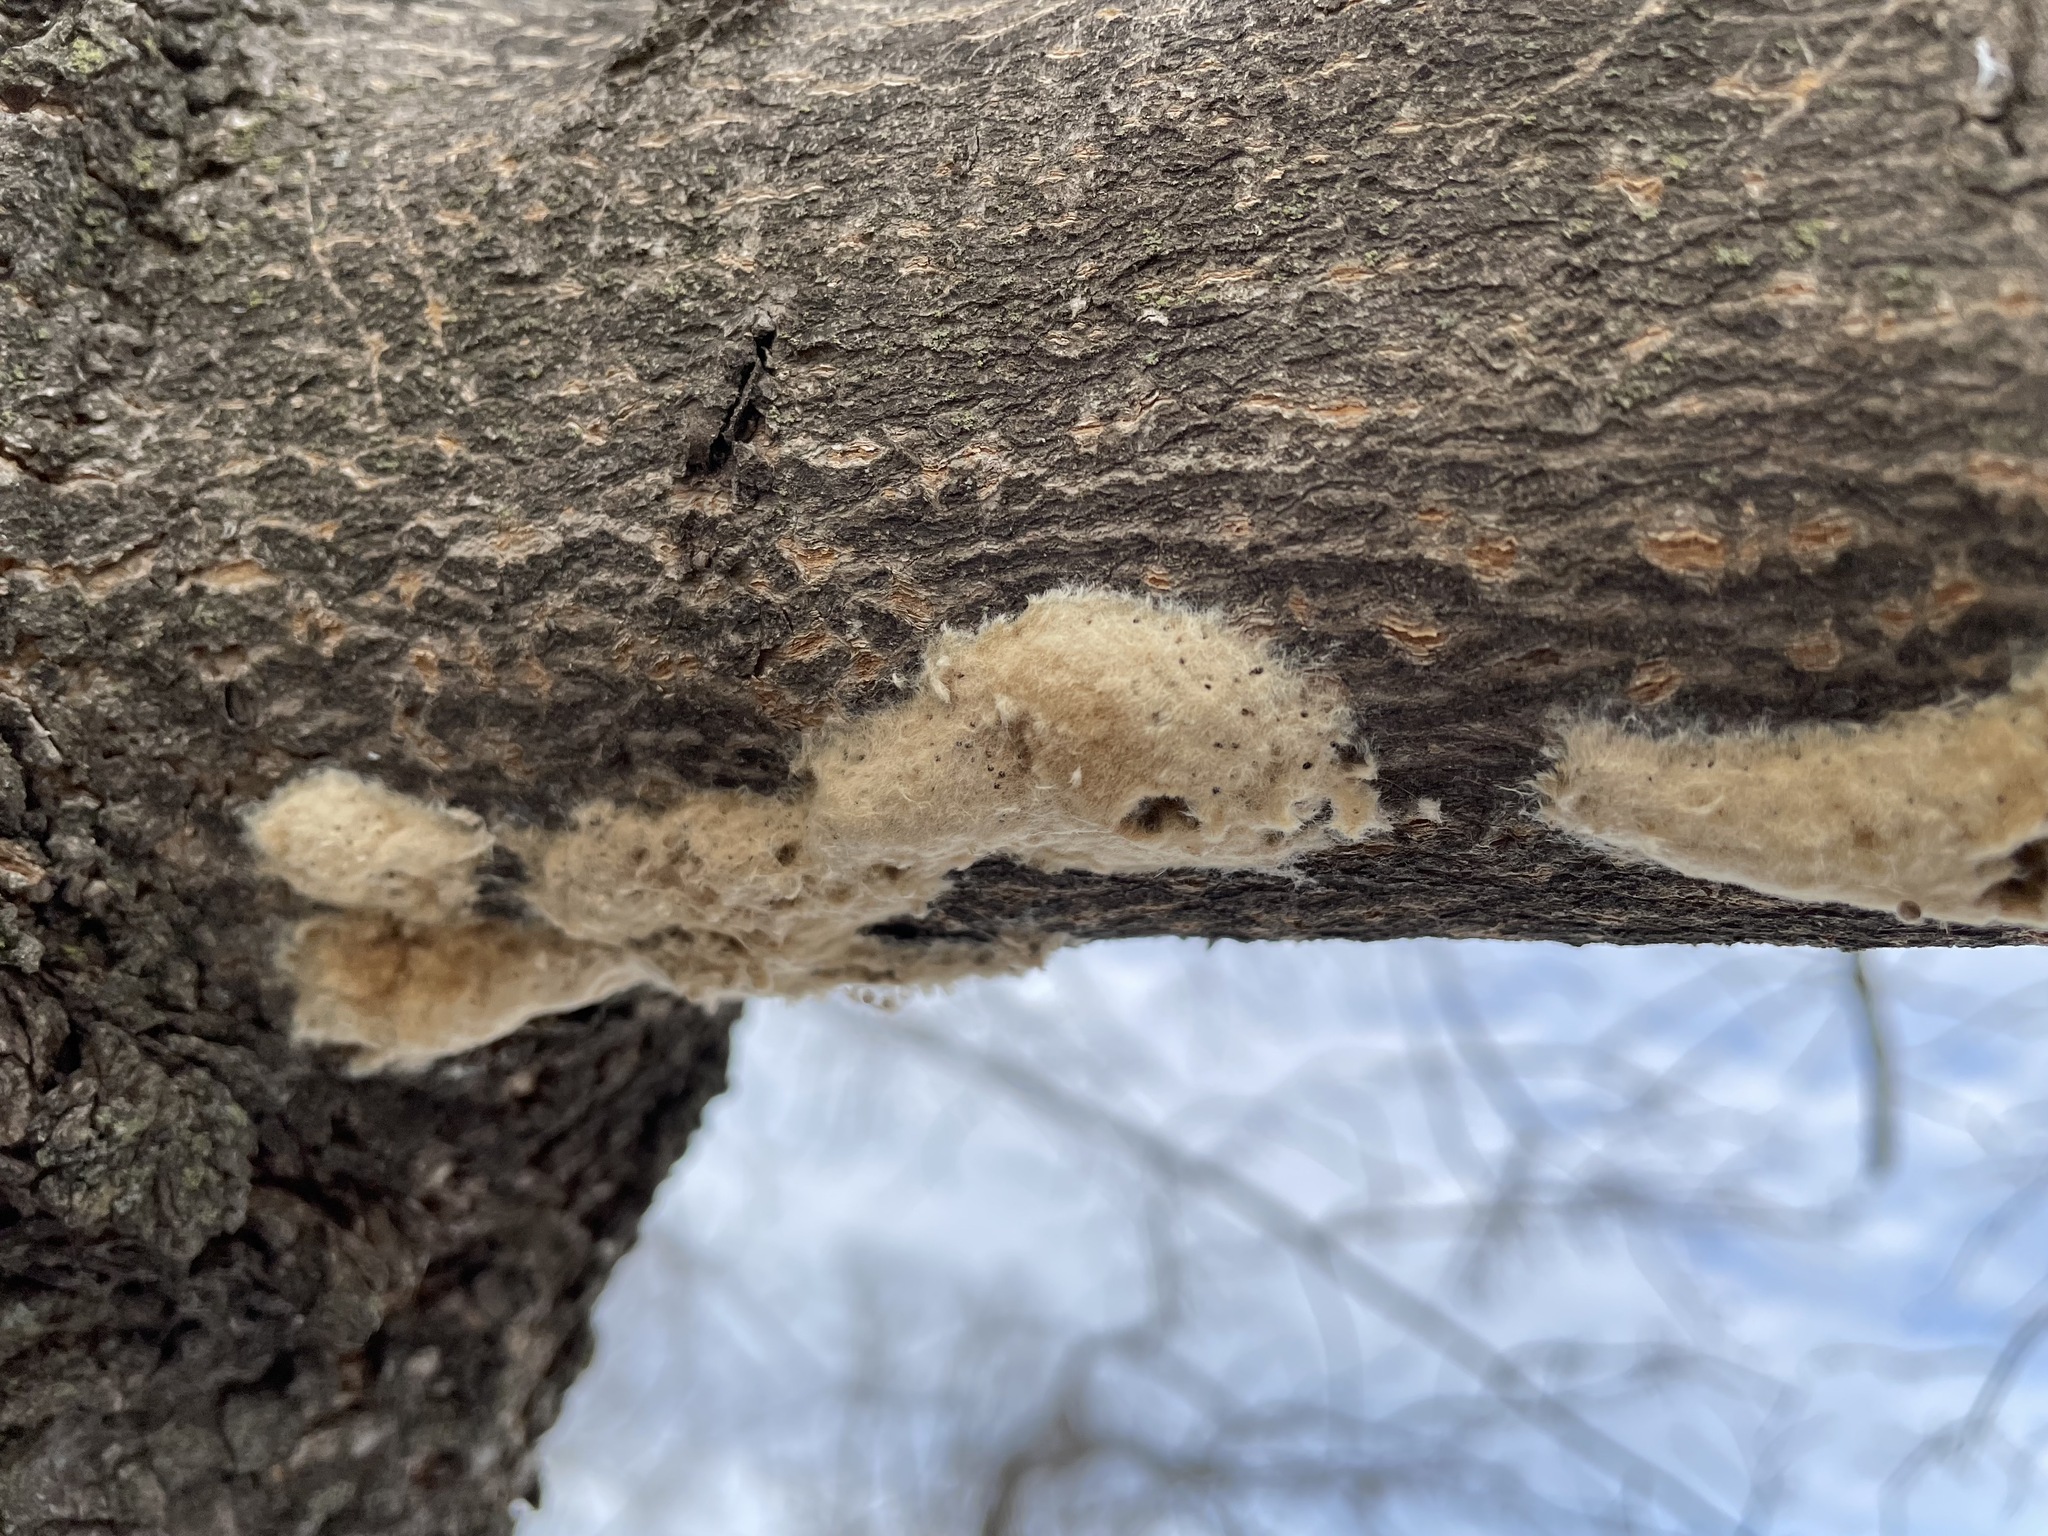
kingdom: Animalia
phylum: Arthropoda
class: Insecta
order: Lepidoptera
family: Erebidae
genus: Lymantria
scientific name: Lymantria dispar
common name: Gypsy moth
